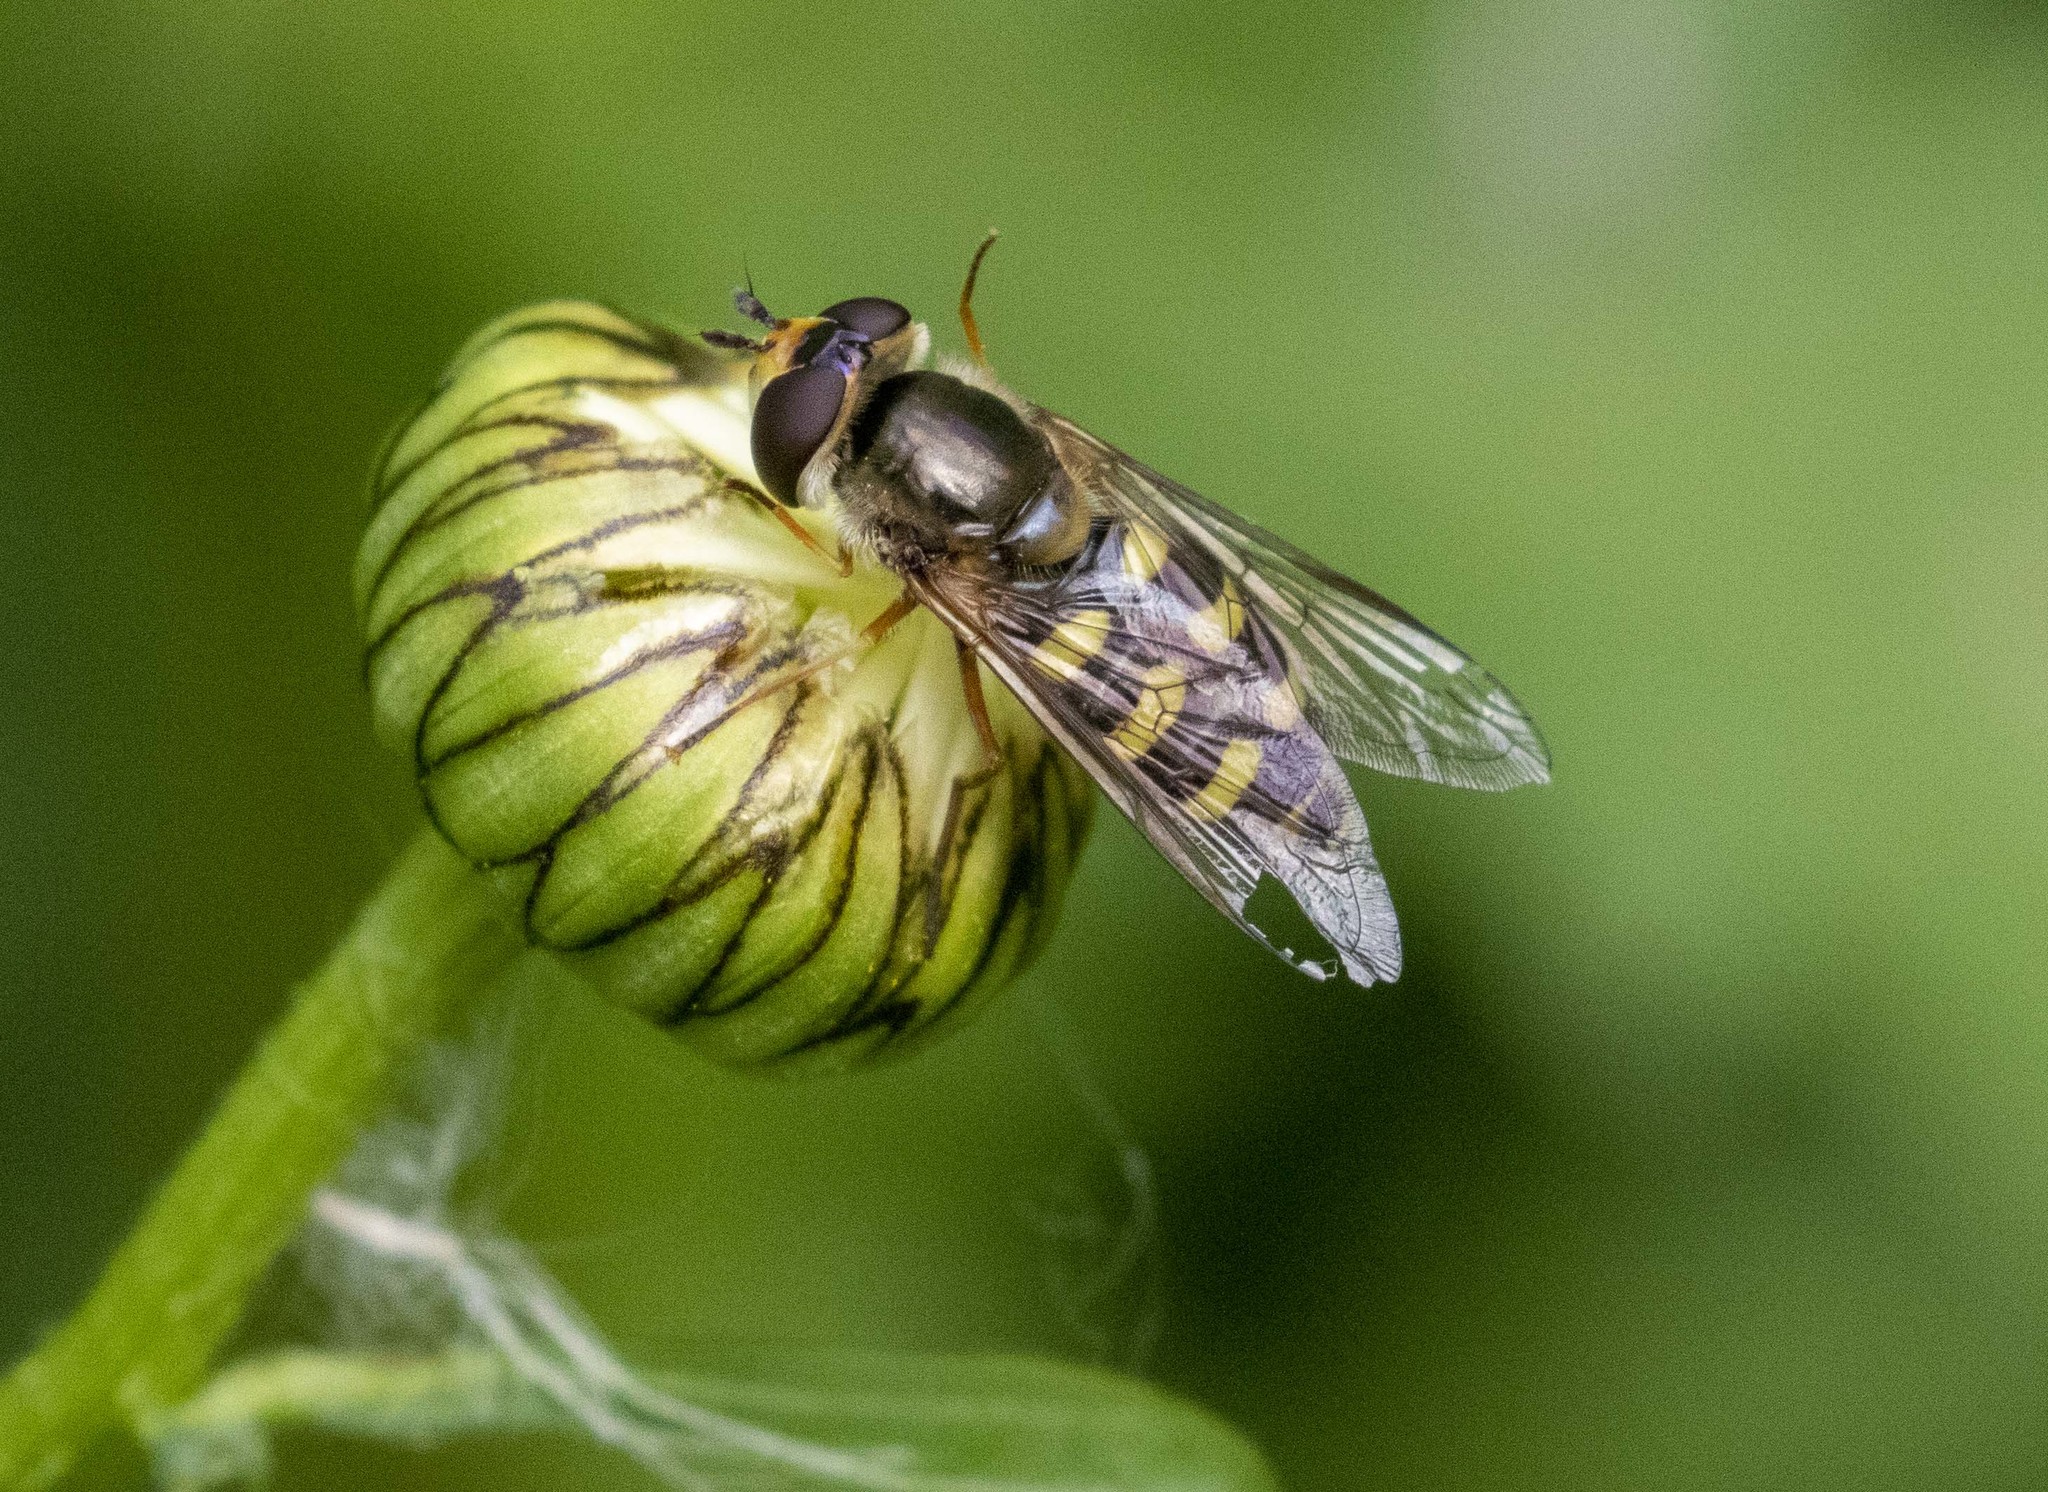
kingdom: Animalia
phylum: Arthropoda
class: Insecta
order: Diptera
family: Syrphidae
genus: Eupeodes
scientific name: Eupeodes
